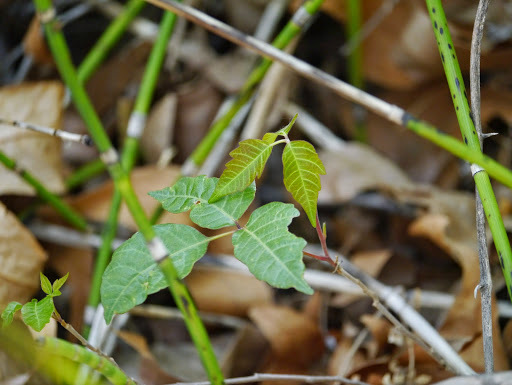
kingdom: Plantae
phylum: Tracheophyta
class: Magnoliopsida
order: Sapindales
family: Anacardiaceae
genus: Toxicodendron
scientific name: Toxicodendron rydbergii
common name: Rydberg's poison-ivy
